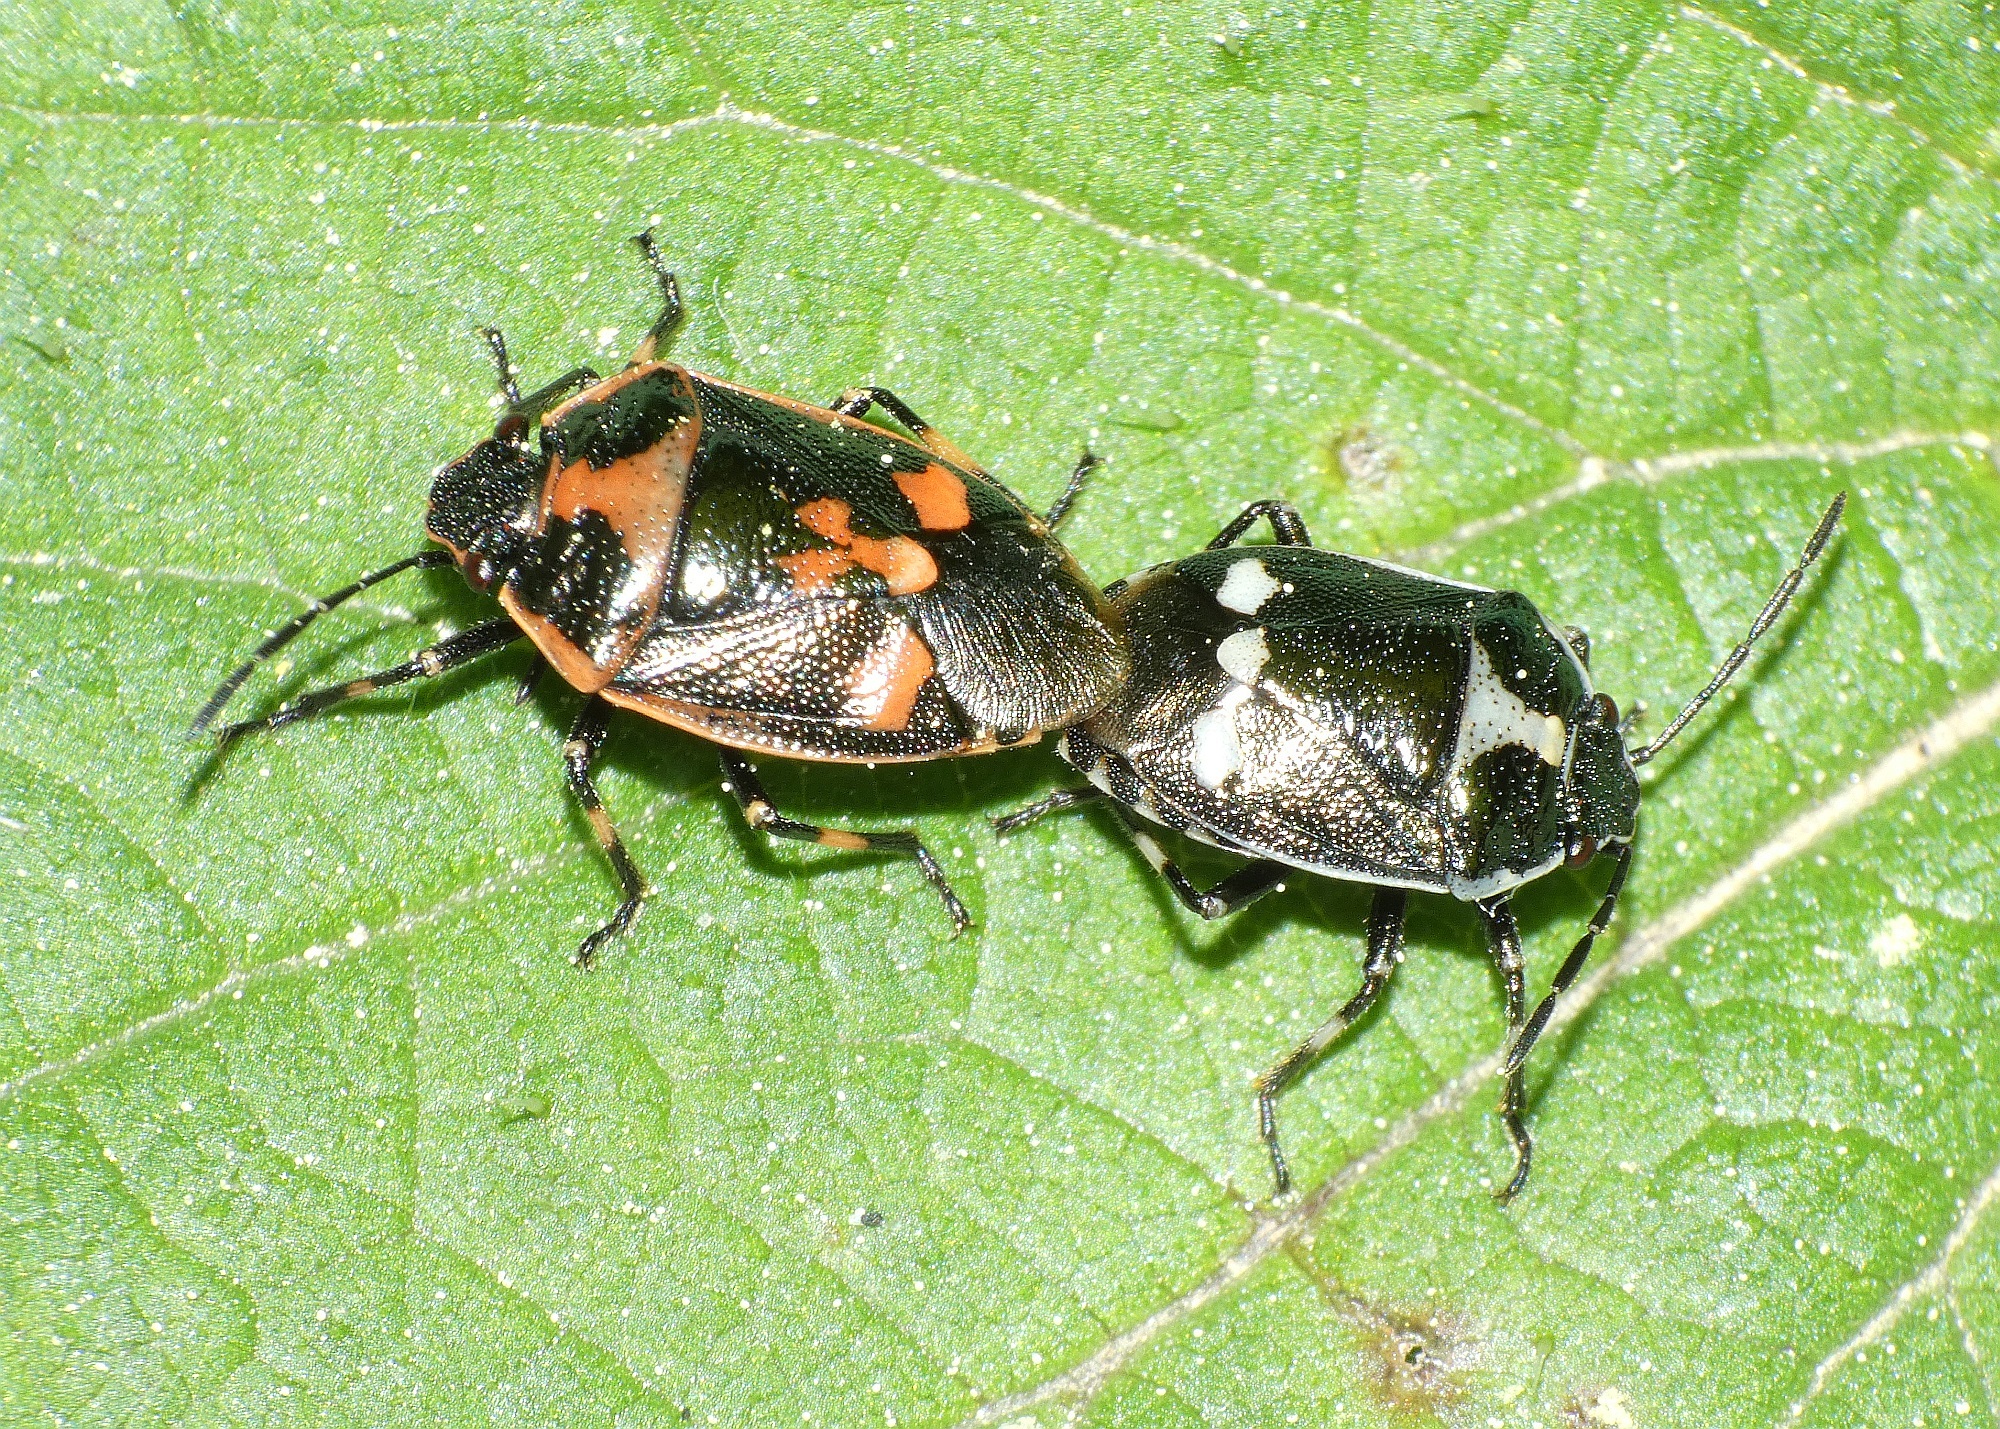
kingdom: Animalia
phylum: Arthropoda
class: Insecta
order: Hemiptera
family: Pentatomidae
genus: Eurydema
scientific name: Eurydema oleracea
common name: Cabbage bug
